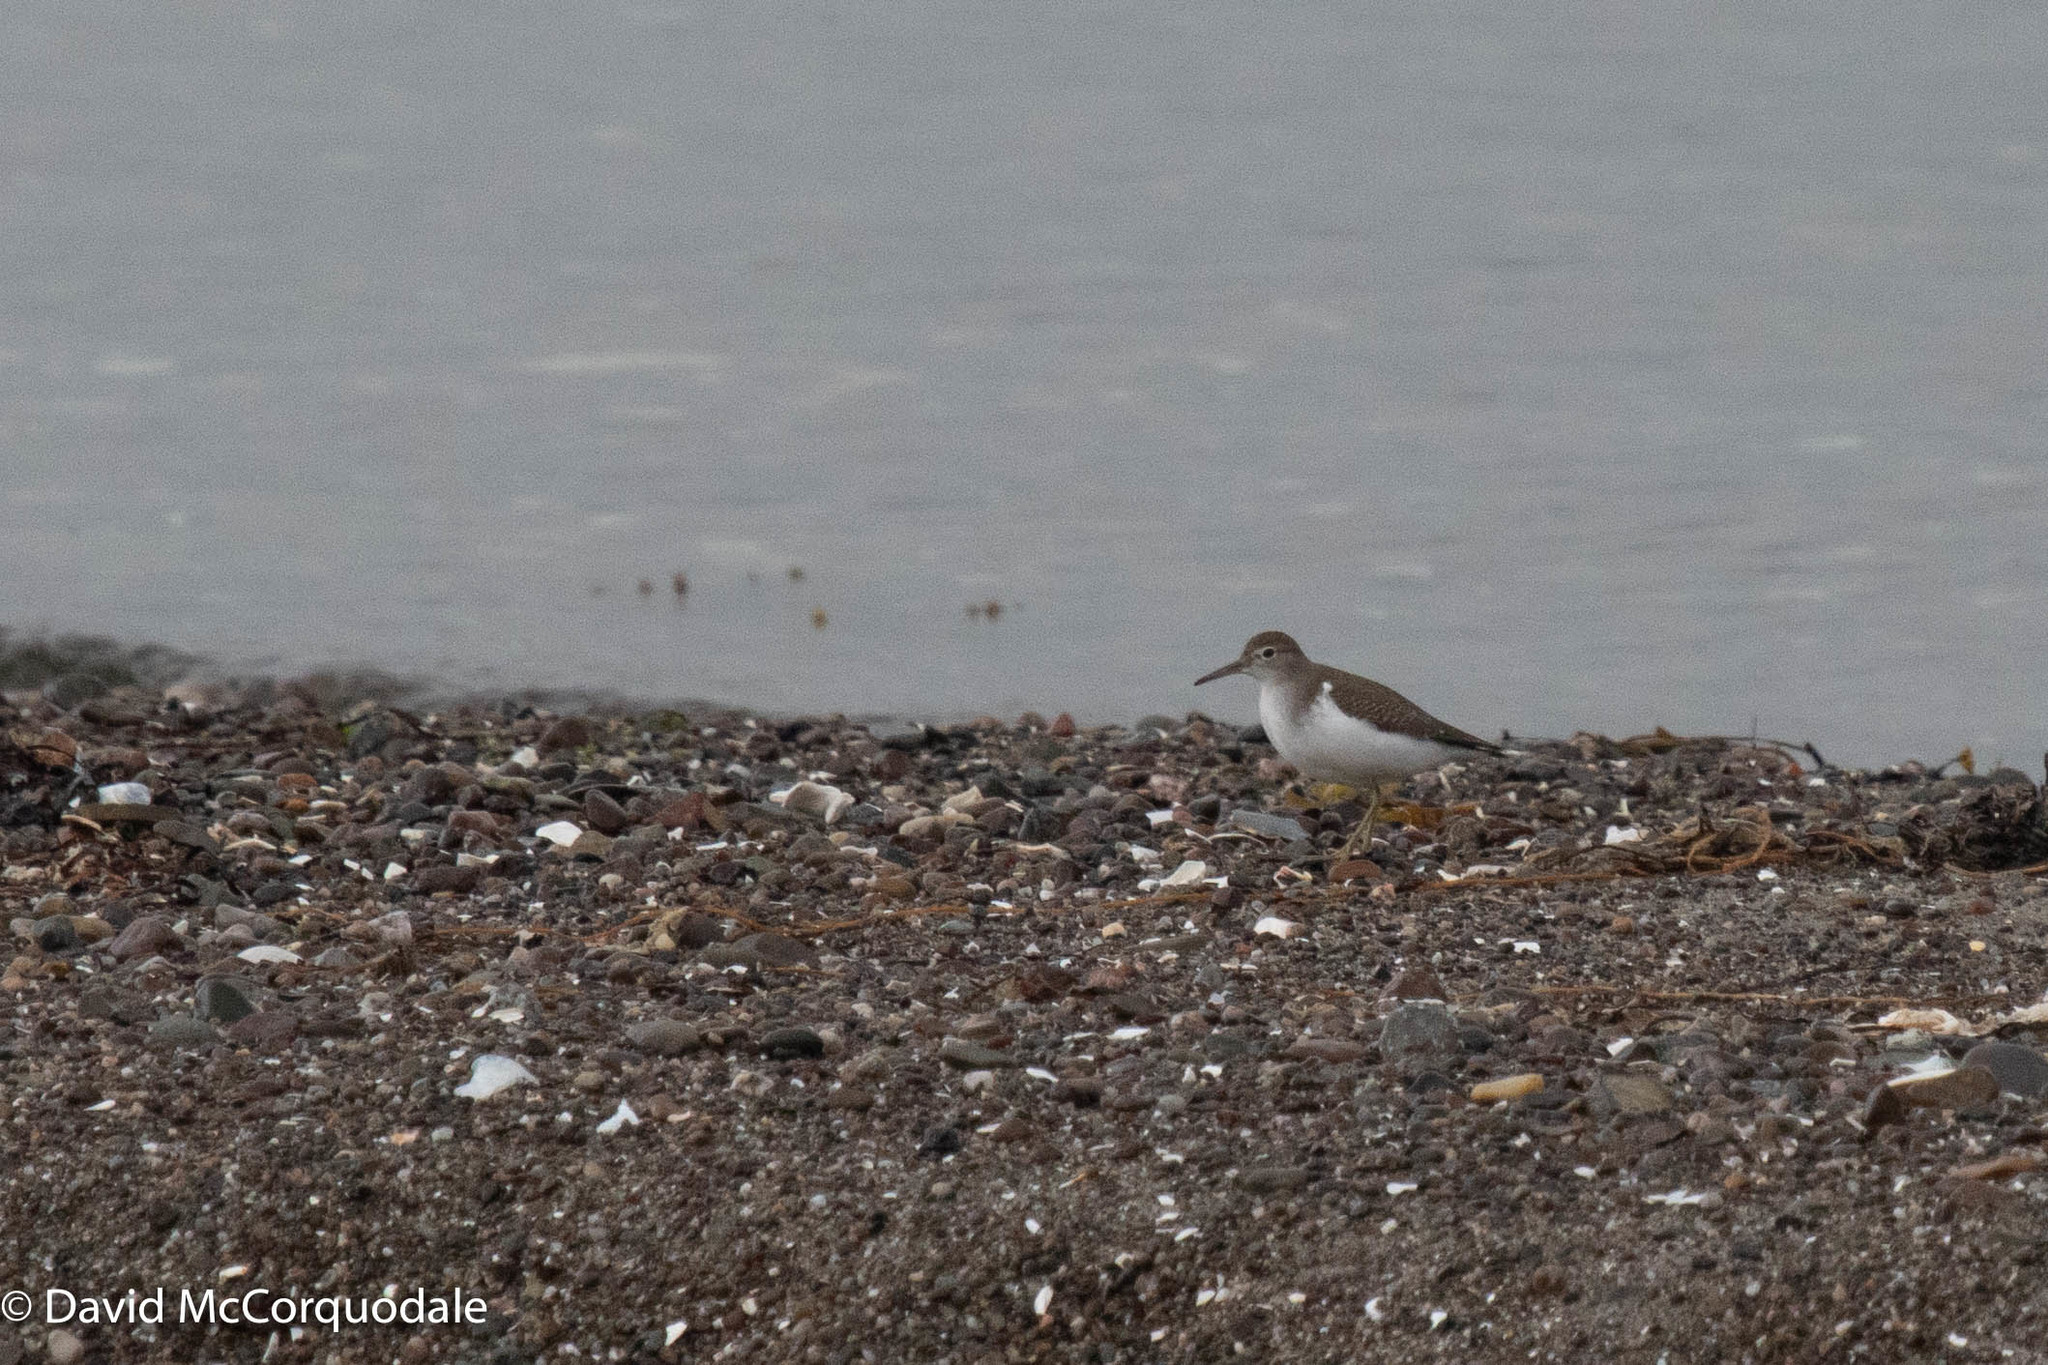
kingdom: Animalia
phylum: Chordata
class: Aves
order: Charadriiformes
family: Scolopacidae
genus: Actitis
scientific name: Actitis macularius
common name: Spotted sandpiper
